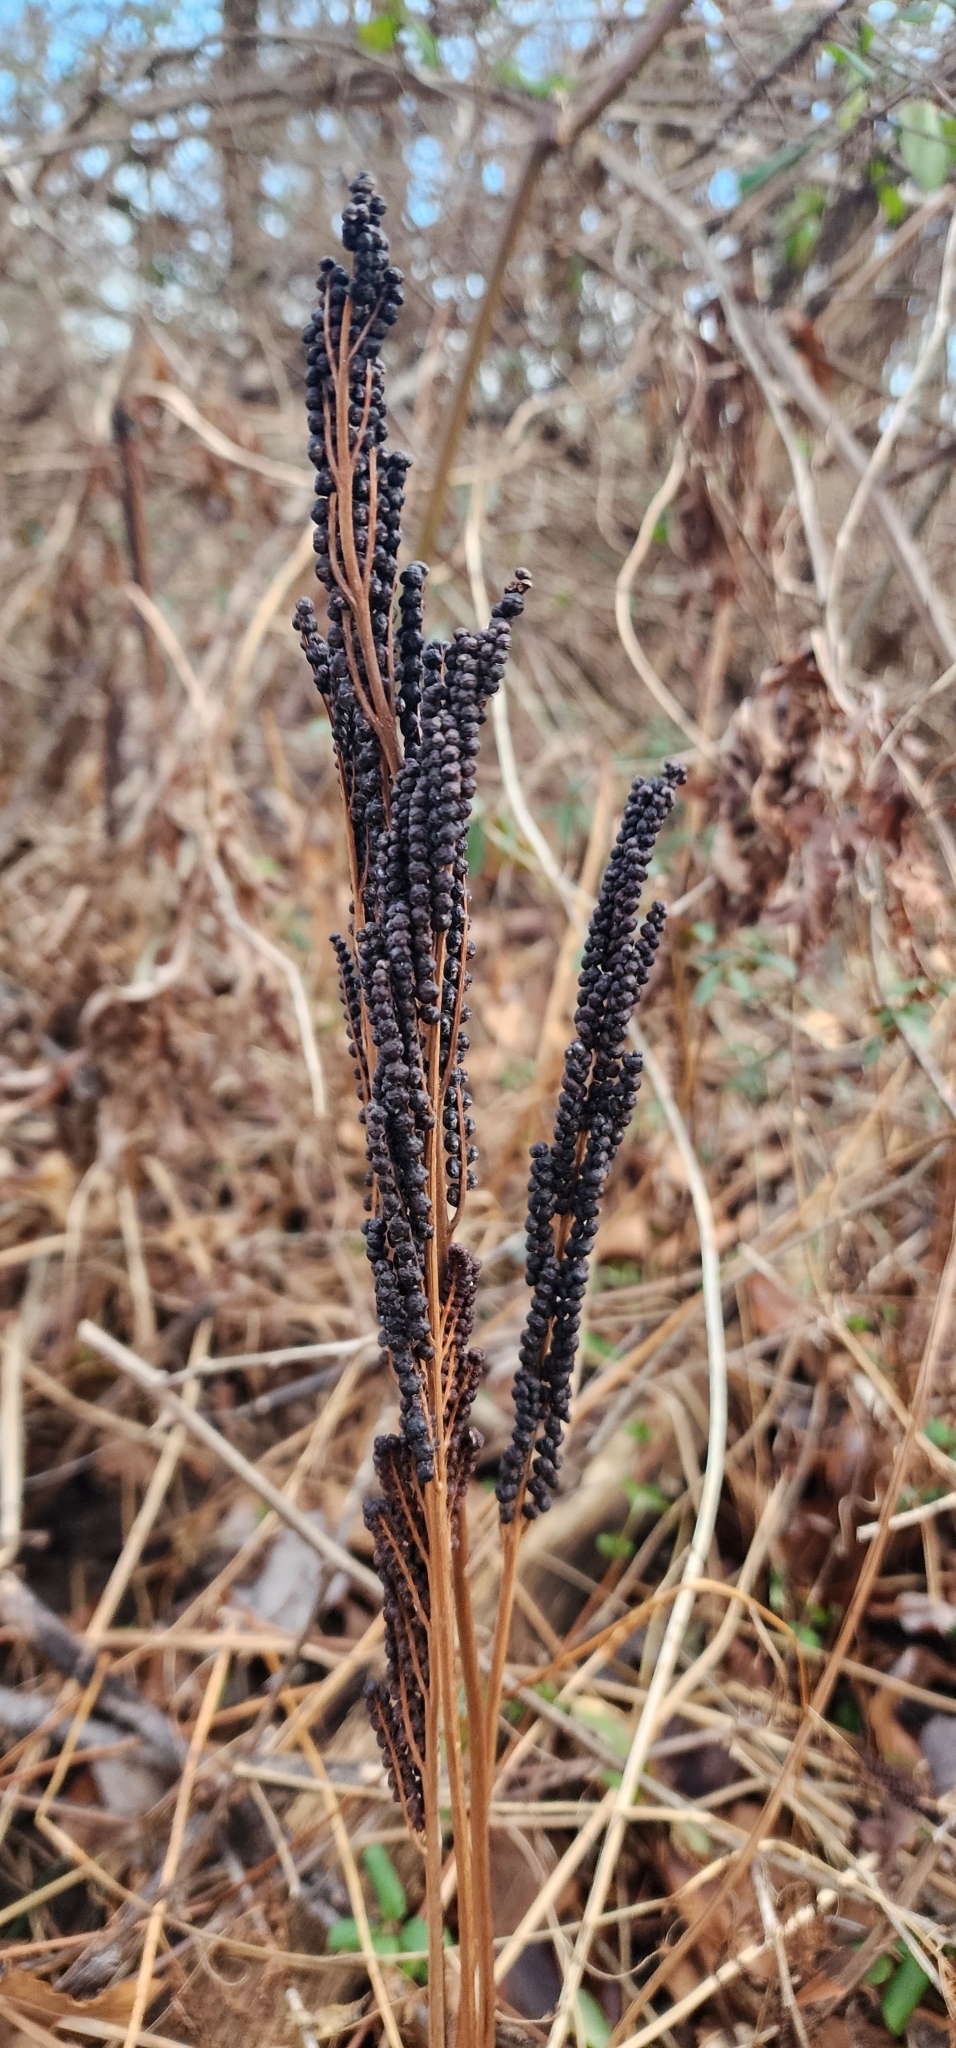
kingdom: Plantae
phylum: Tracheophyta
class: Polypodiopsida
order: Polypodiales
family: Onocleaceae
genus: Onoclea
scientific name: Onoclea sensibilis
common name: Sensitive fern
